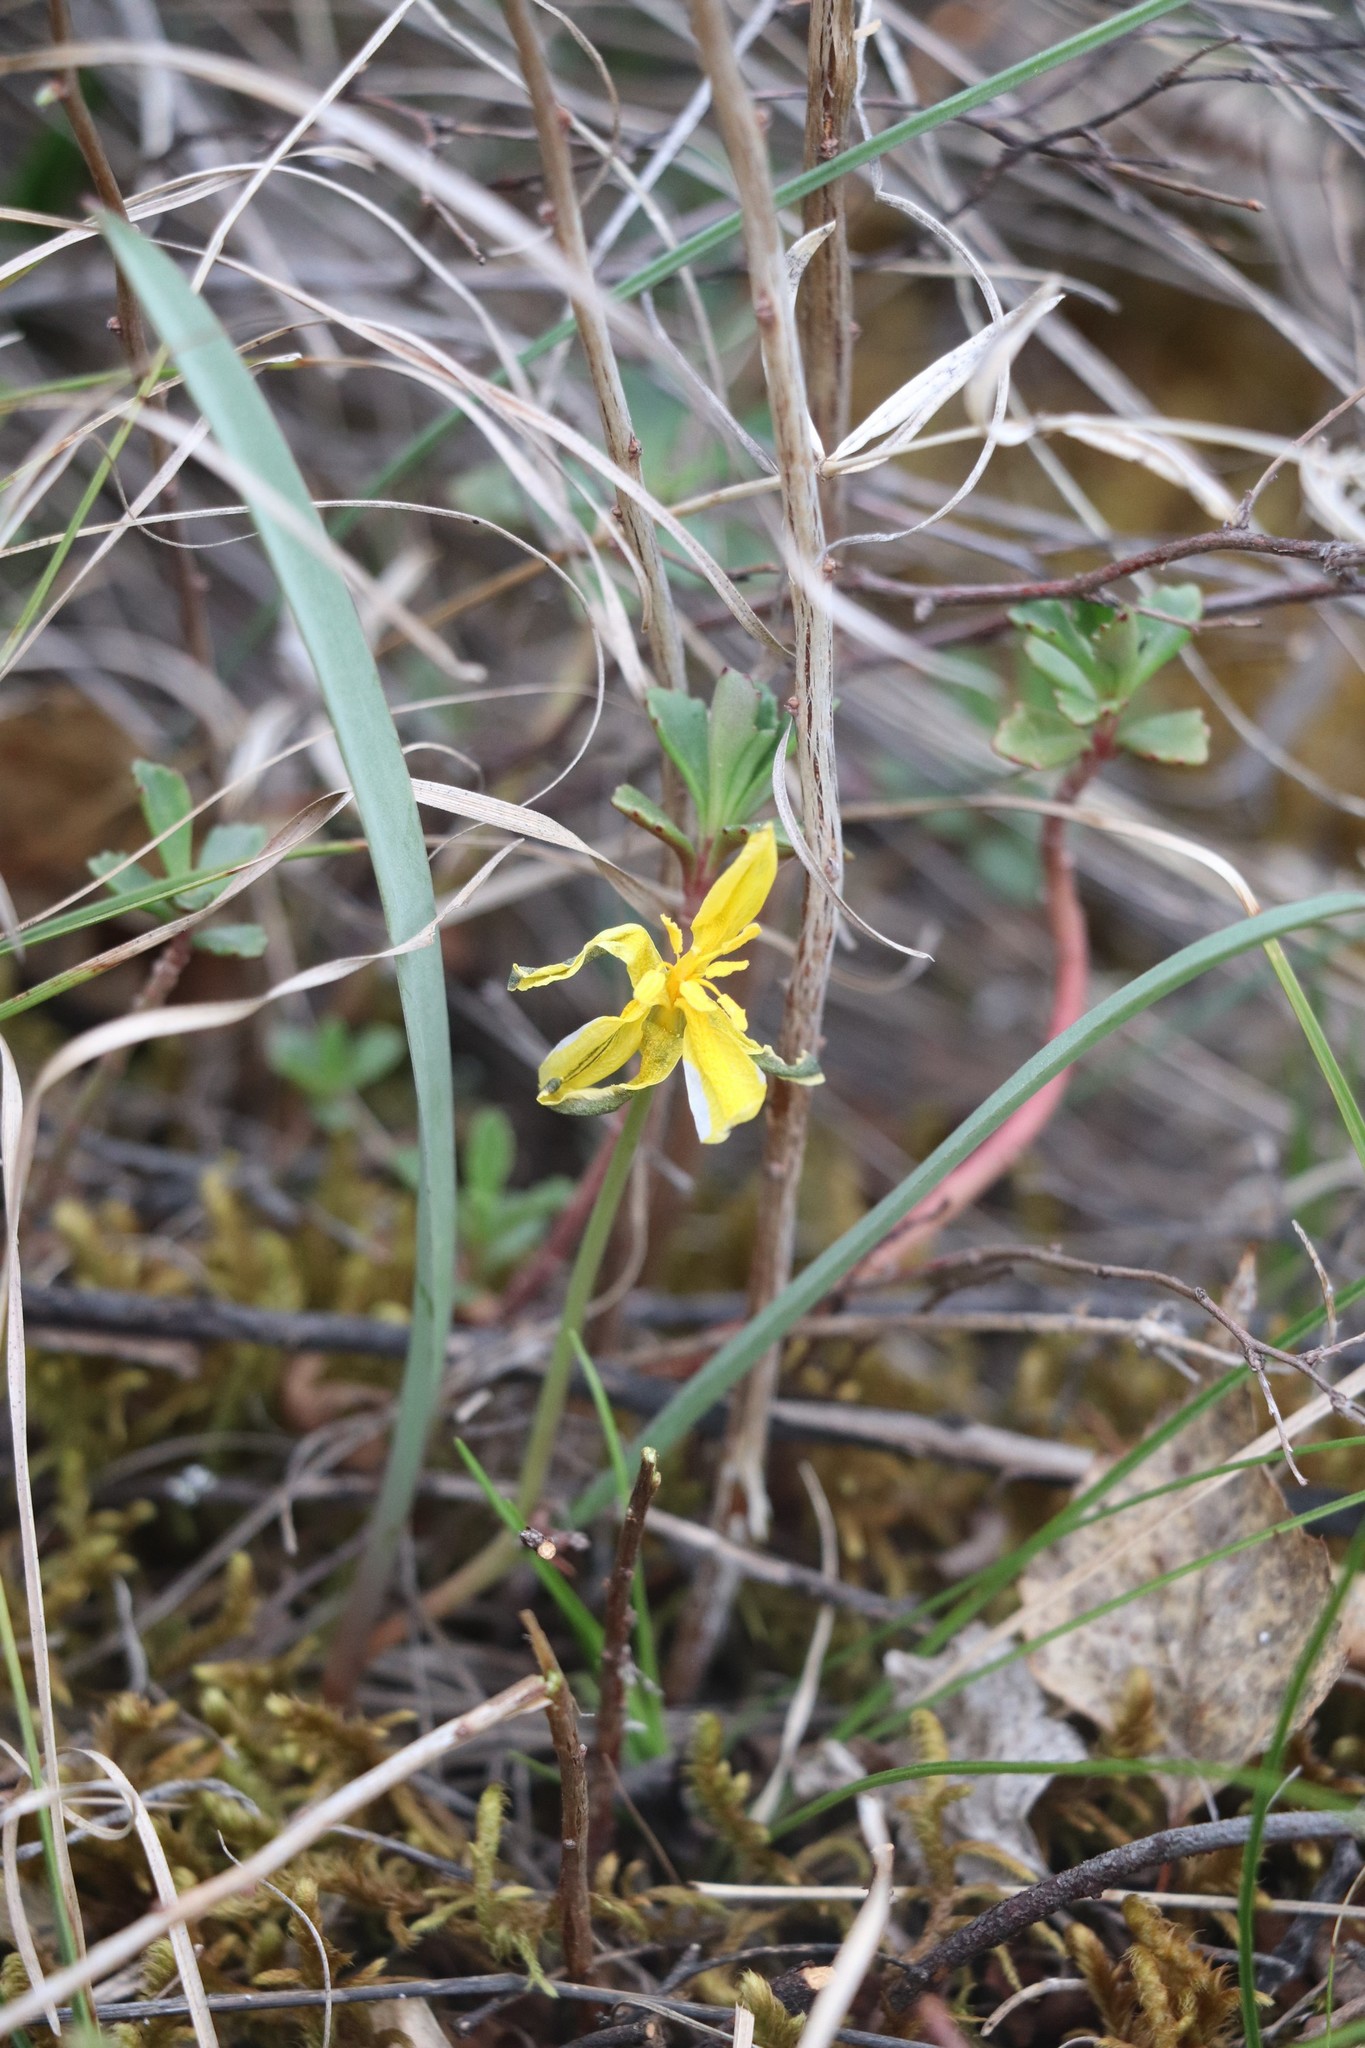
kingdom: Plantae
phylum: Tracheophyta
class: Liliopsida
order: Liliales
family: Liliaceae
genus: Tulipa
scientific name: Tulipa uniflora
